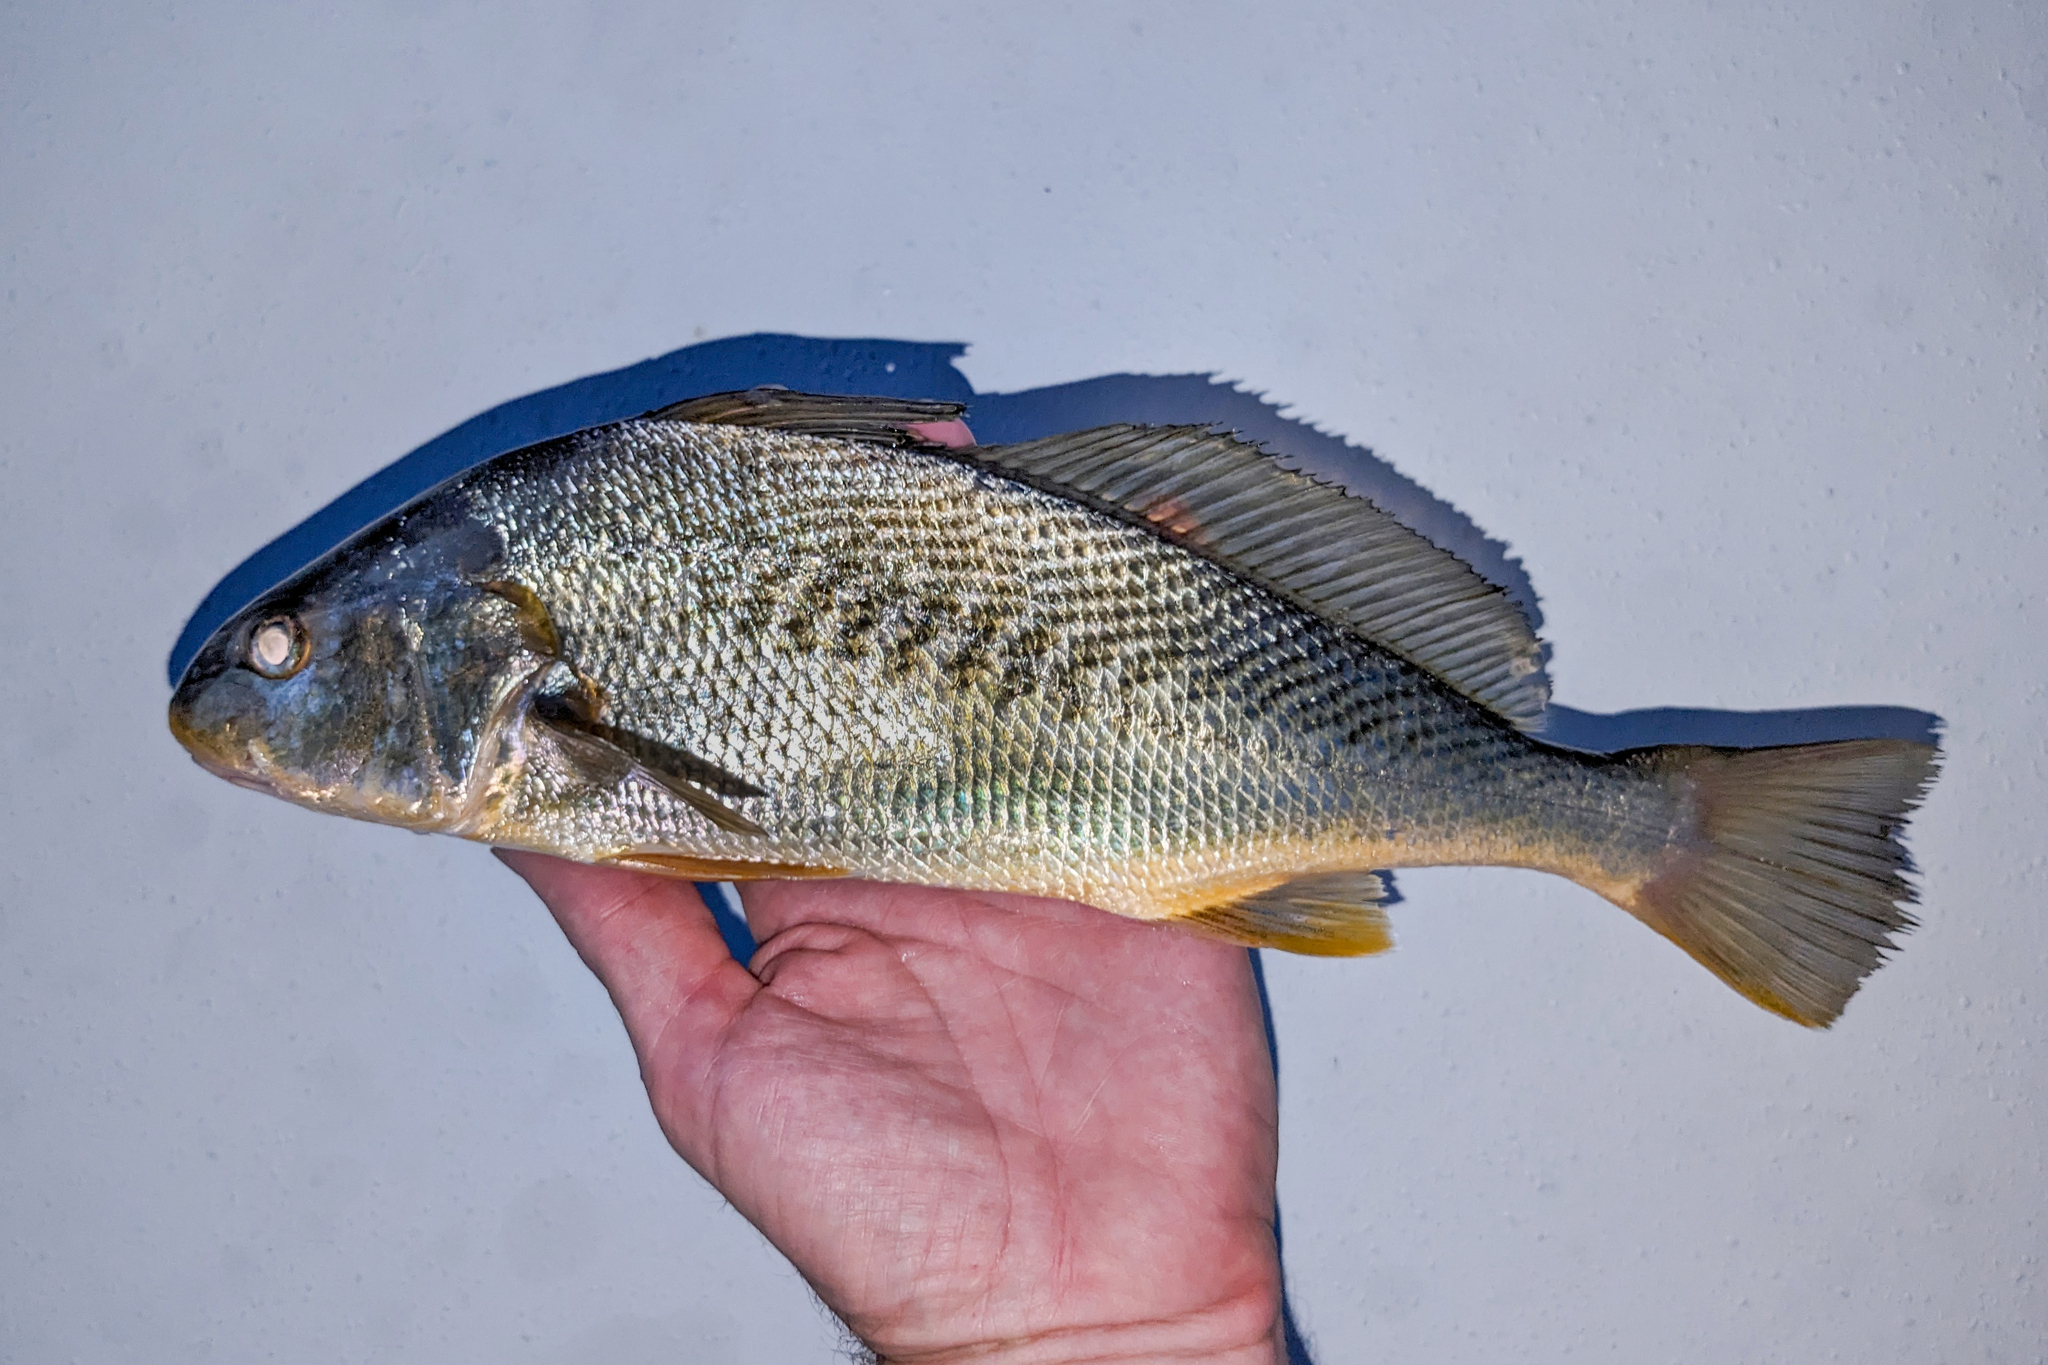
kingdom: Animalia
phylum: Chordata
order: Perciformes
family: Sciaenidae
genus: Micropogonias
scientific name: Micropogonias undulatus
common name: Atlantic croaker
